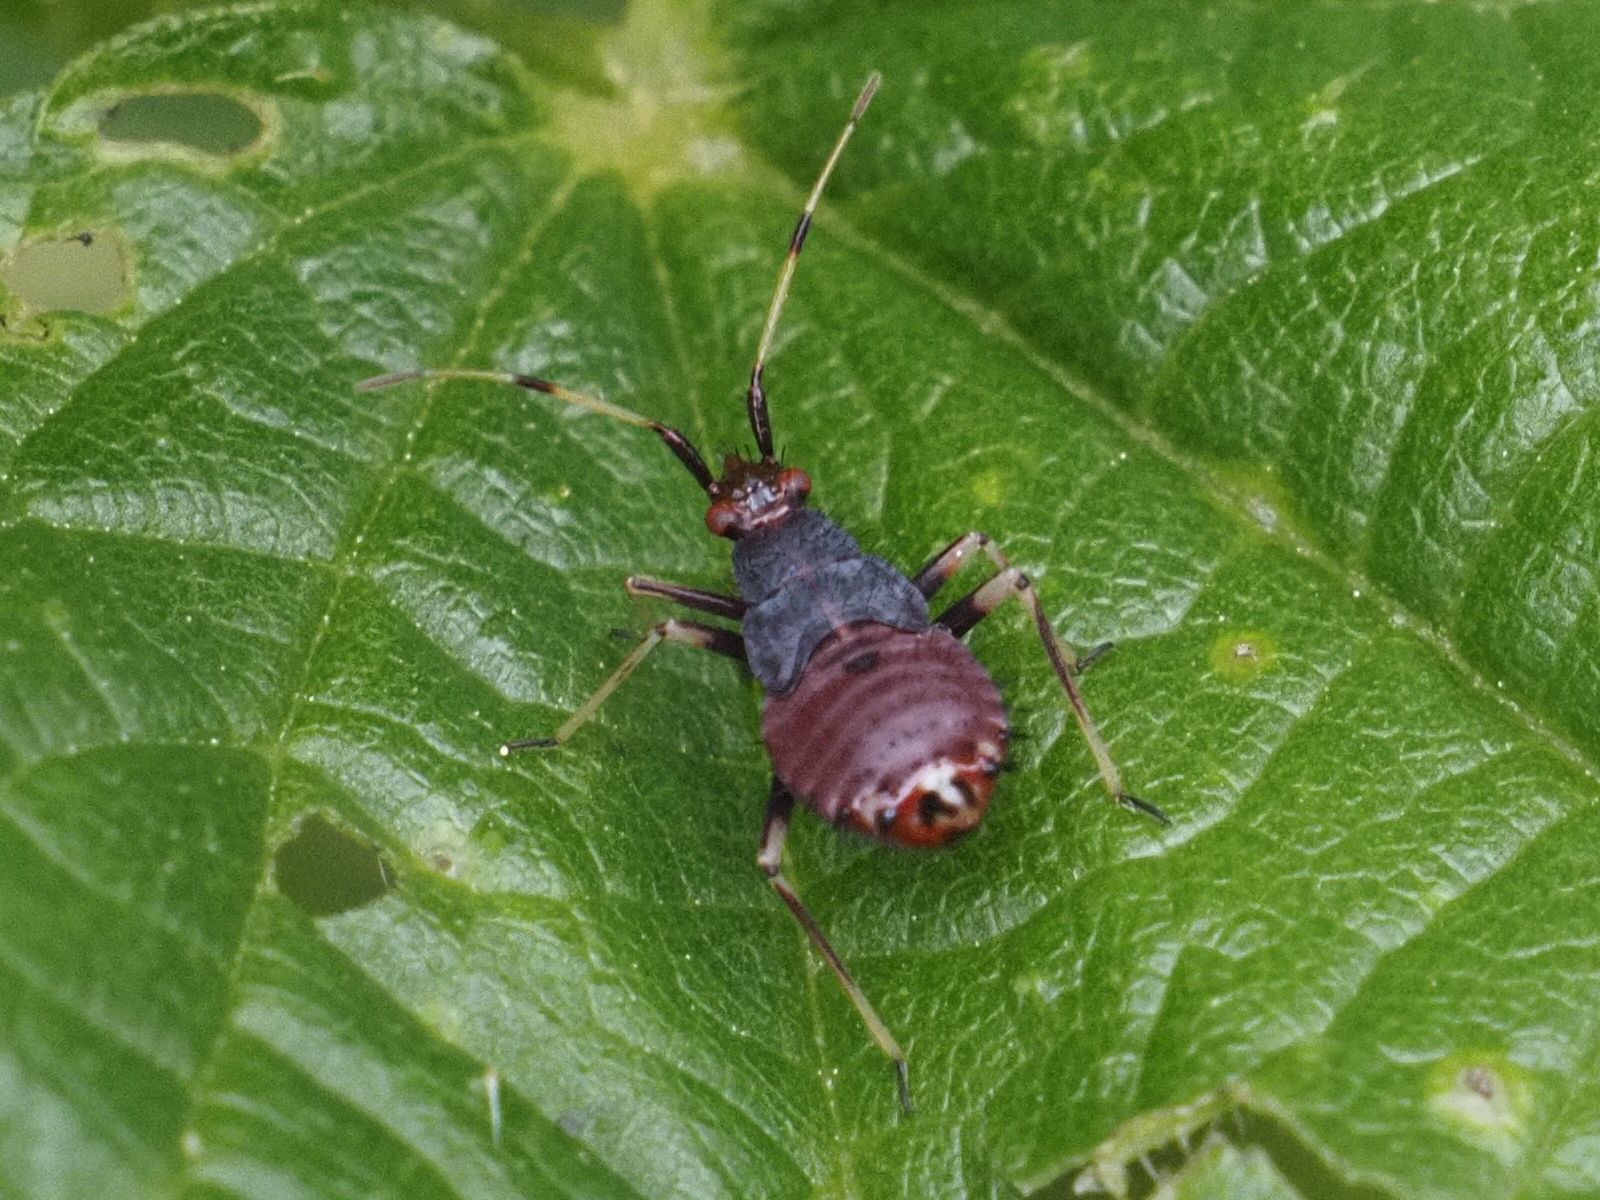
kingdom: Animalia
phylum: Arthropoda
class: Insecta
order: Hemiptera
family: Miridae
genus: Deraeocoris
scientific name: Deraeocoris ruber
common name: Plant bug
